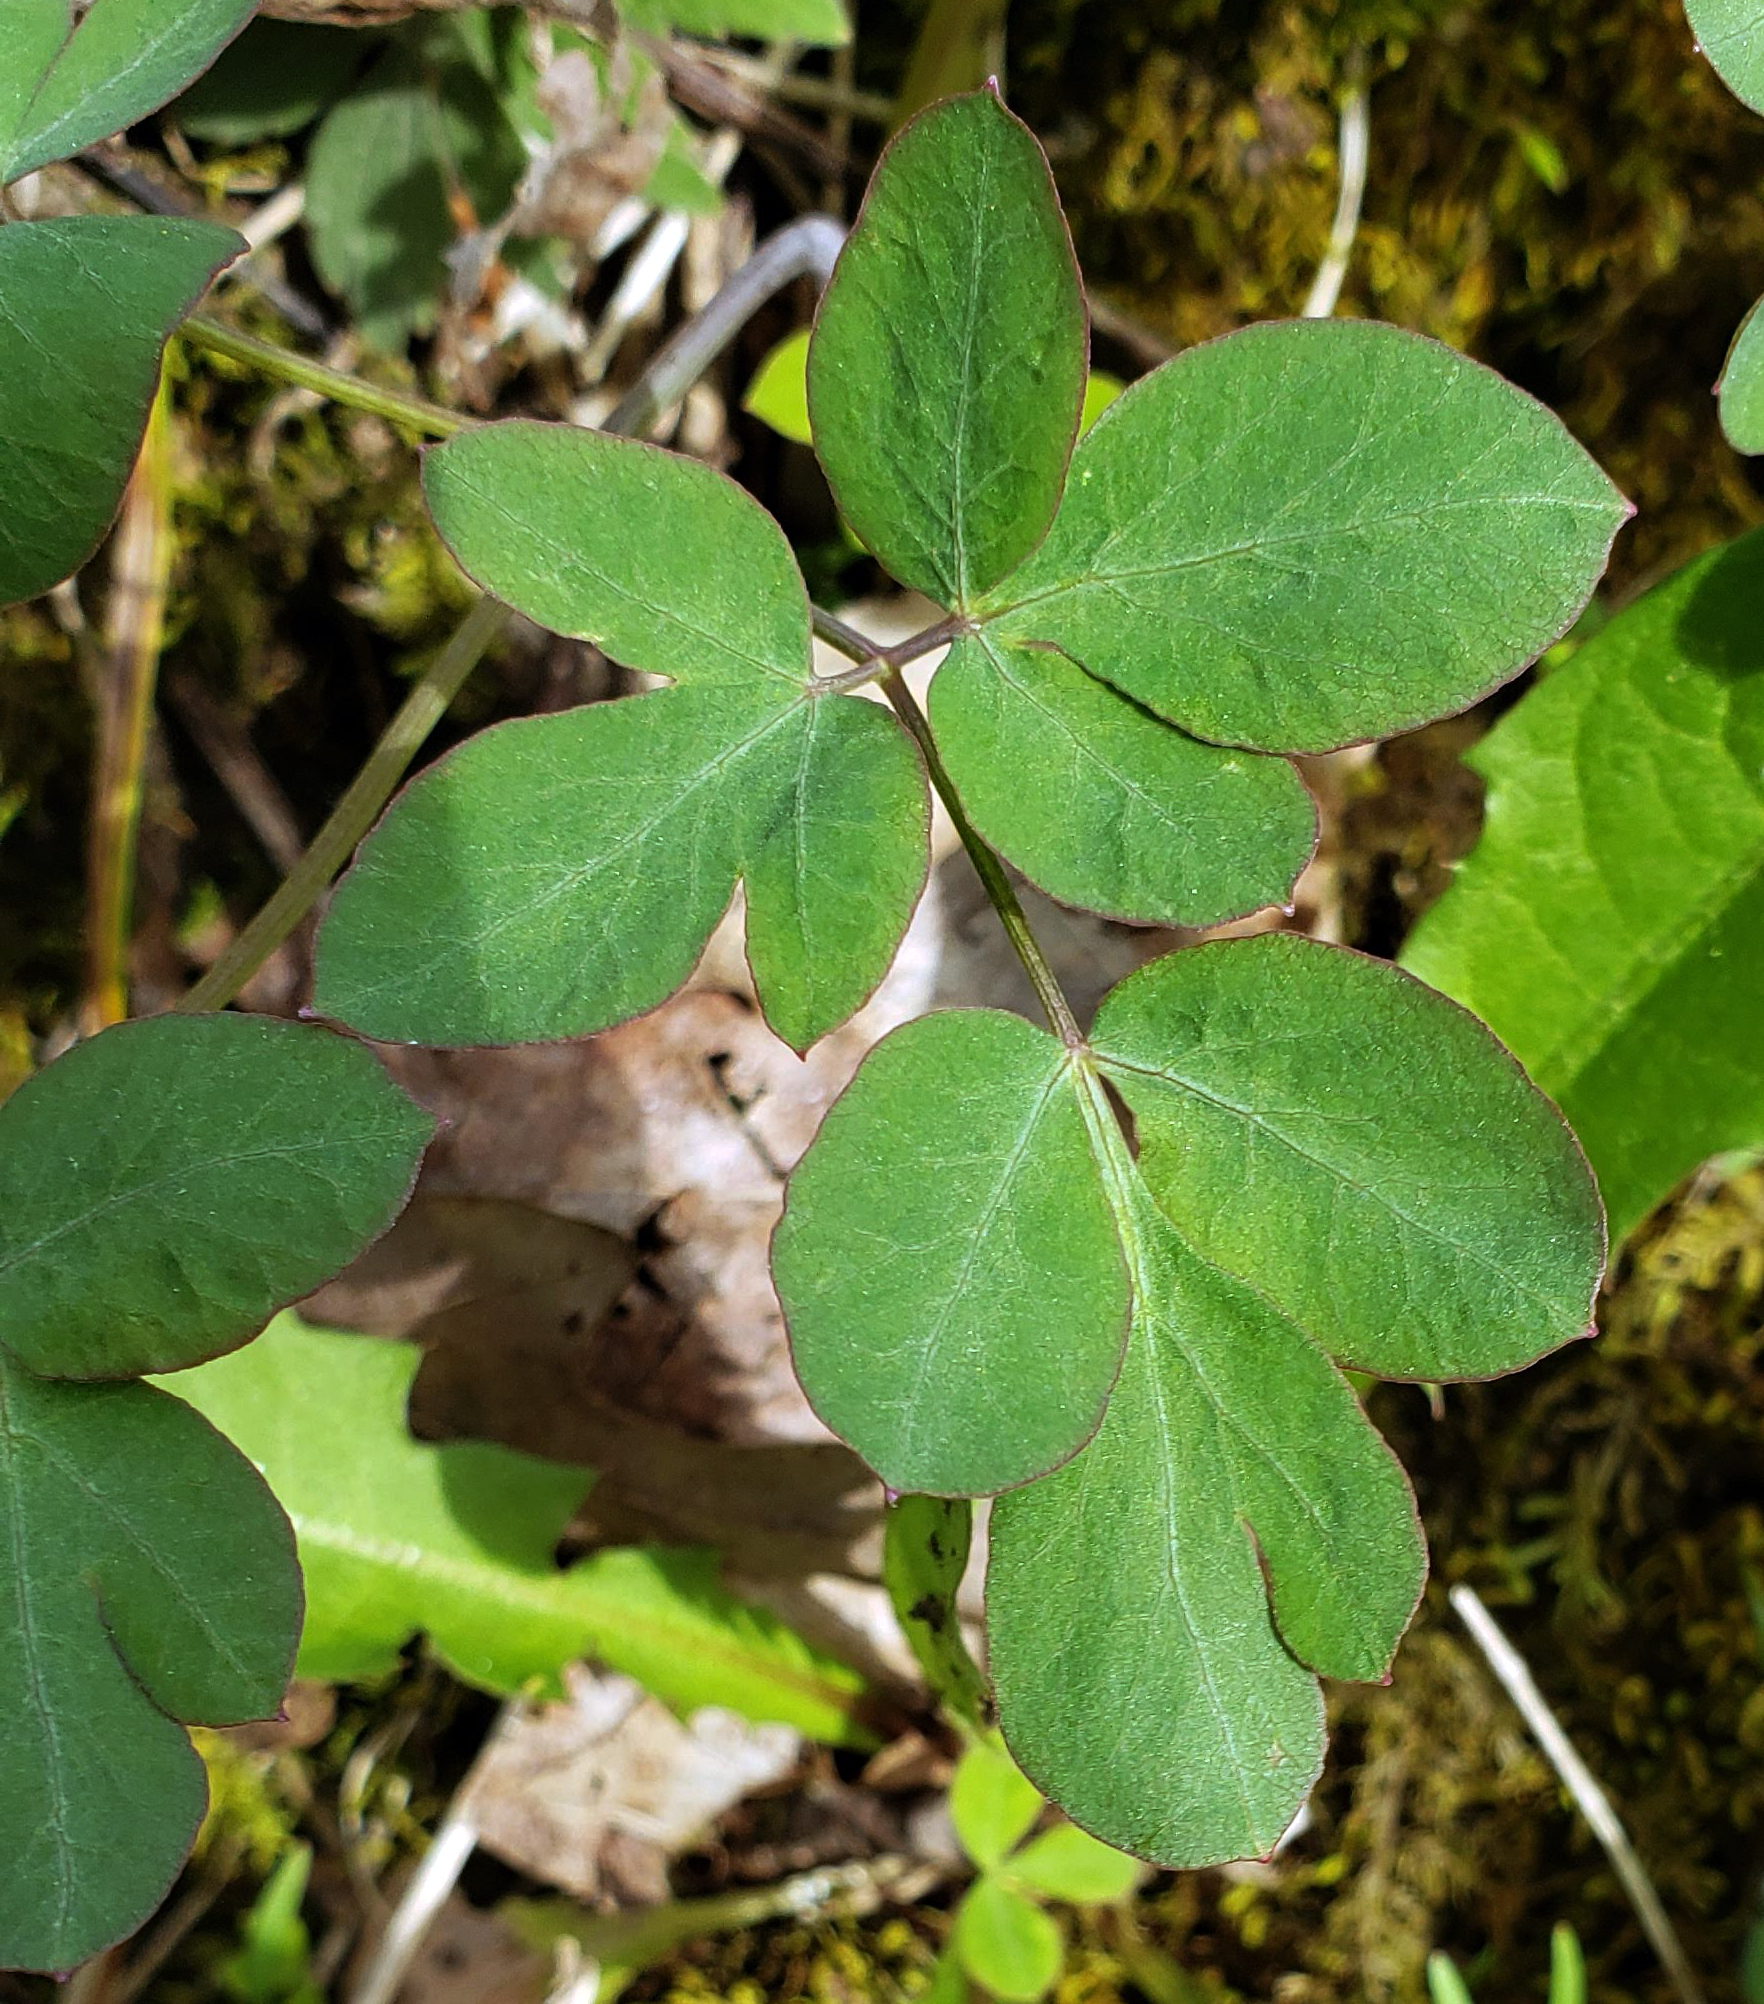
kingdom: Plantae
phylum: Tracheophyta
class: Magnoliopsida
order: Apiales
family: Apiaceae
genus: Taenidia
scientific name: Taenidia integerrima
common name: Golden alexander
